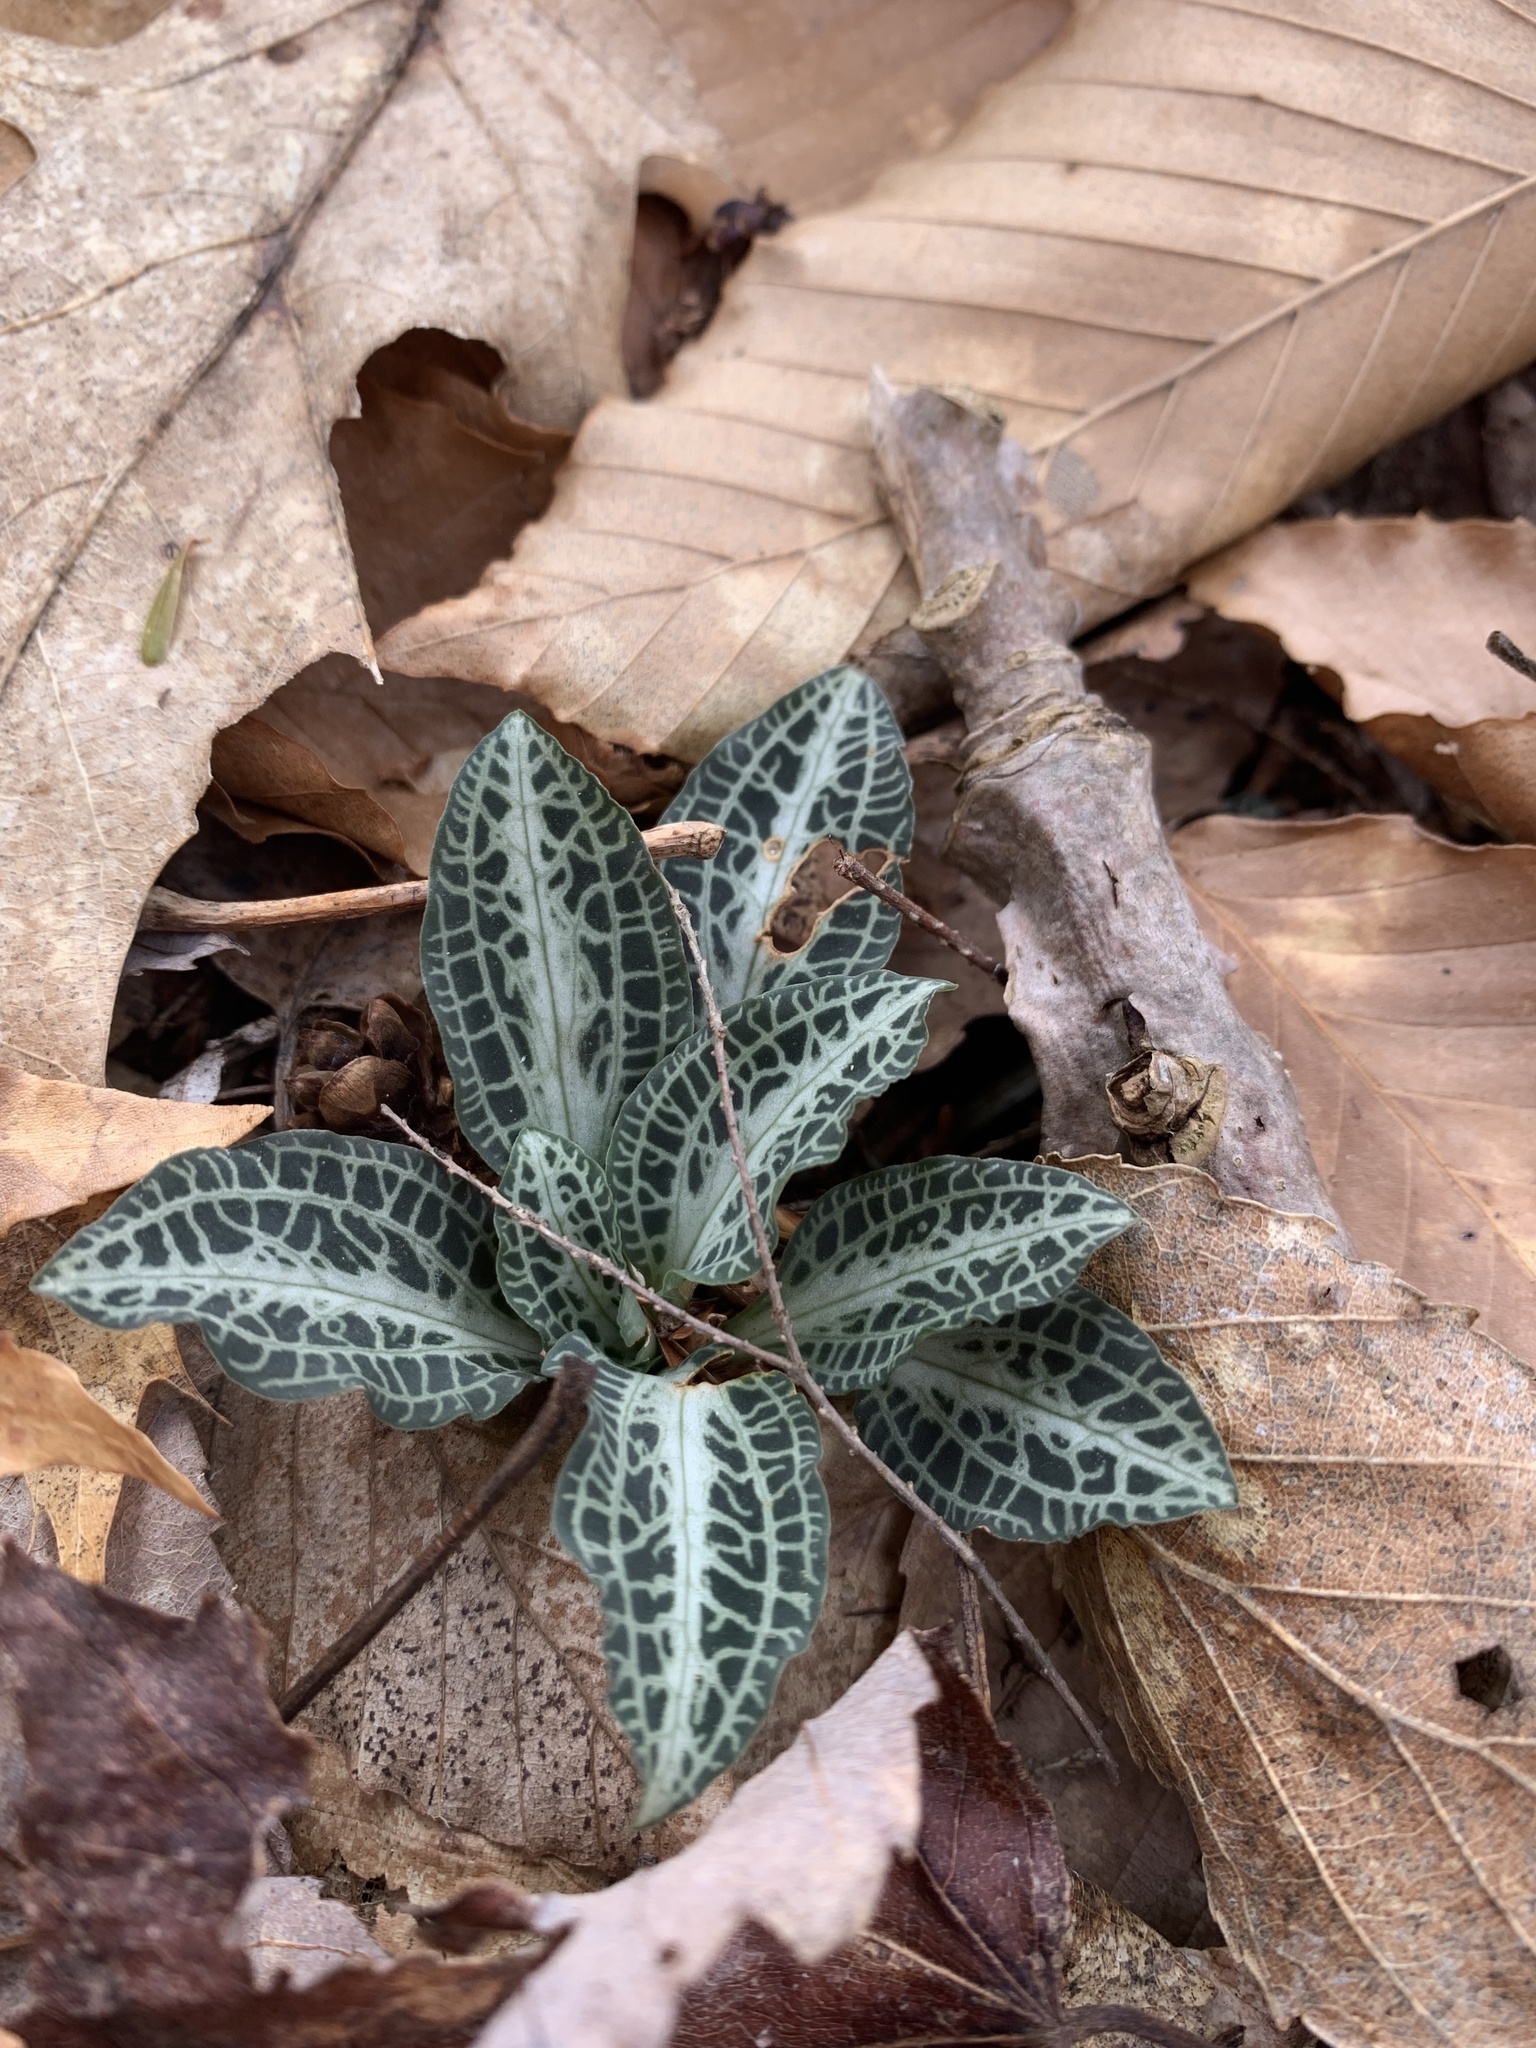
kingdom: Plantae
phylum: Tracheophyta
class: Liliopsida
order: Asparagales
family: Orchidaceae
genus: Goodyera
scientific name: Goodyera pubescens
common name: Downy rattlesnake-plantain
